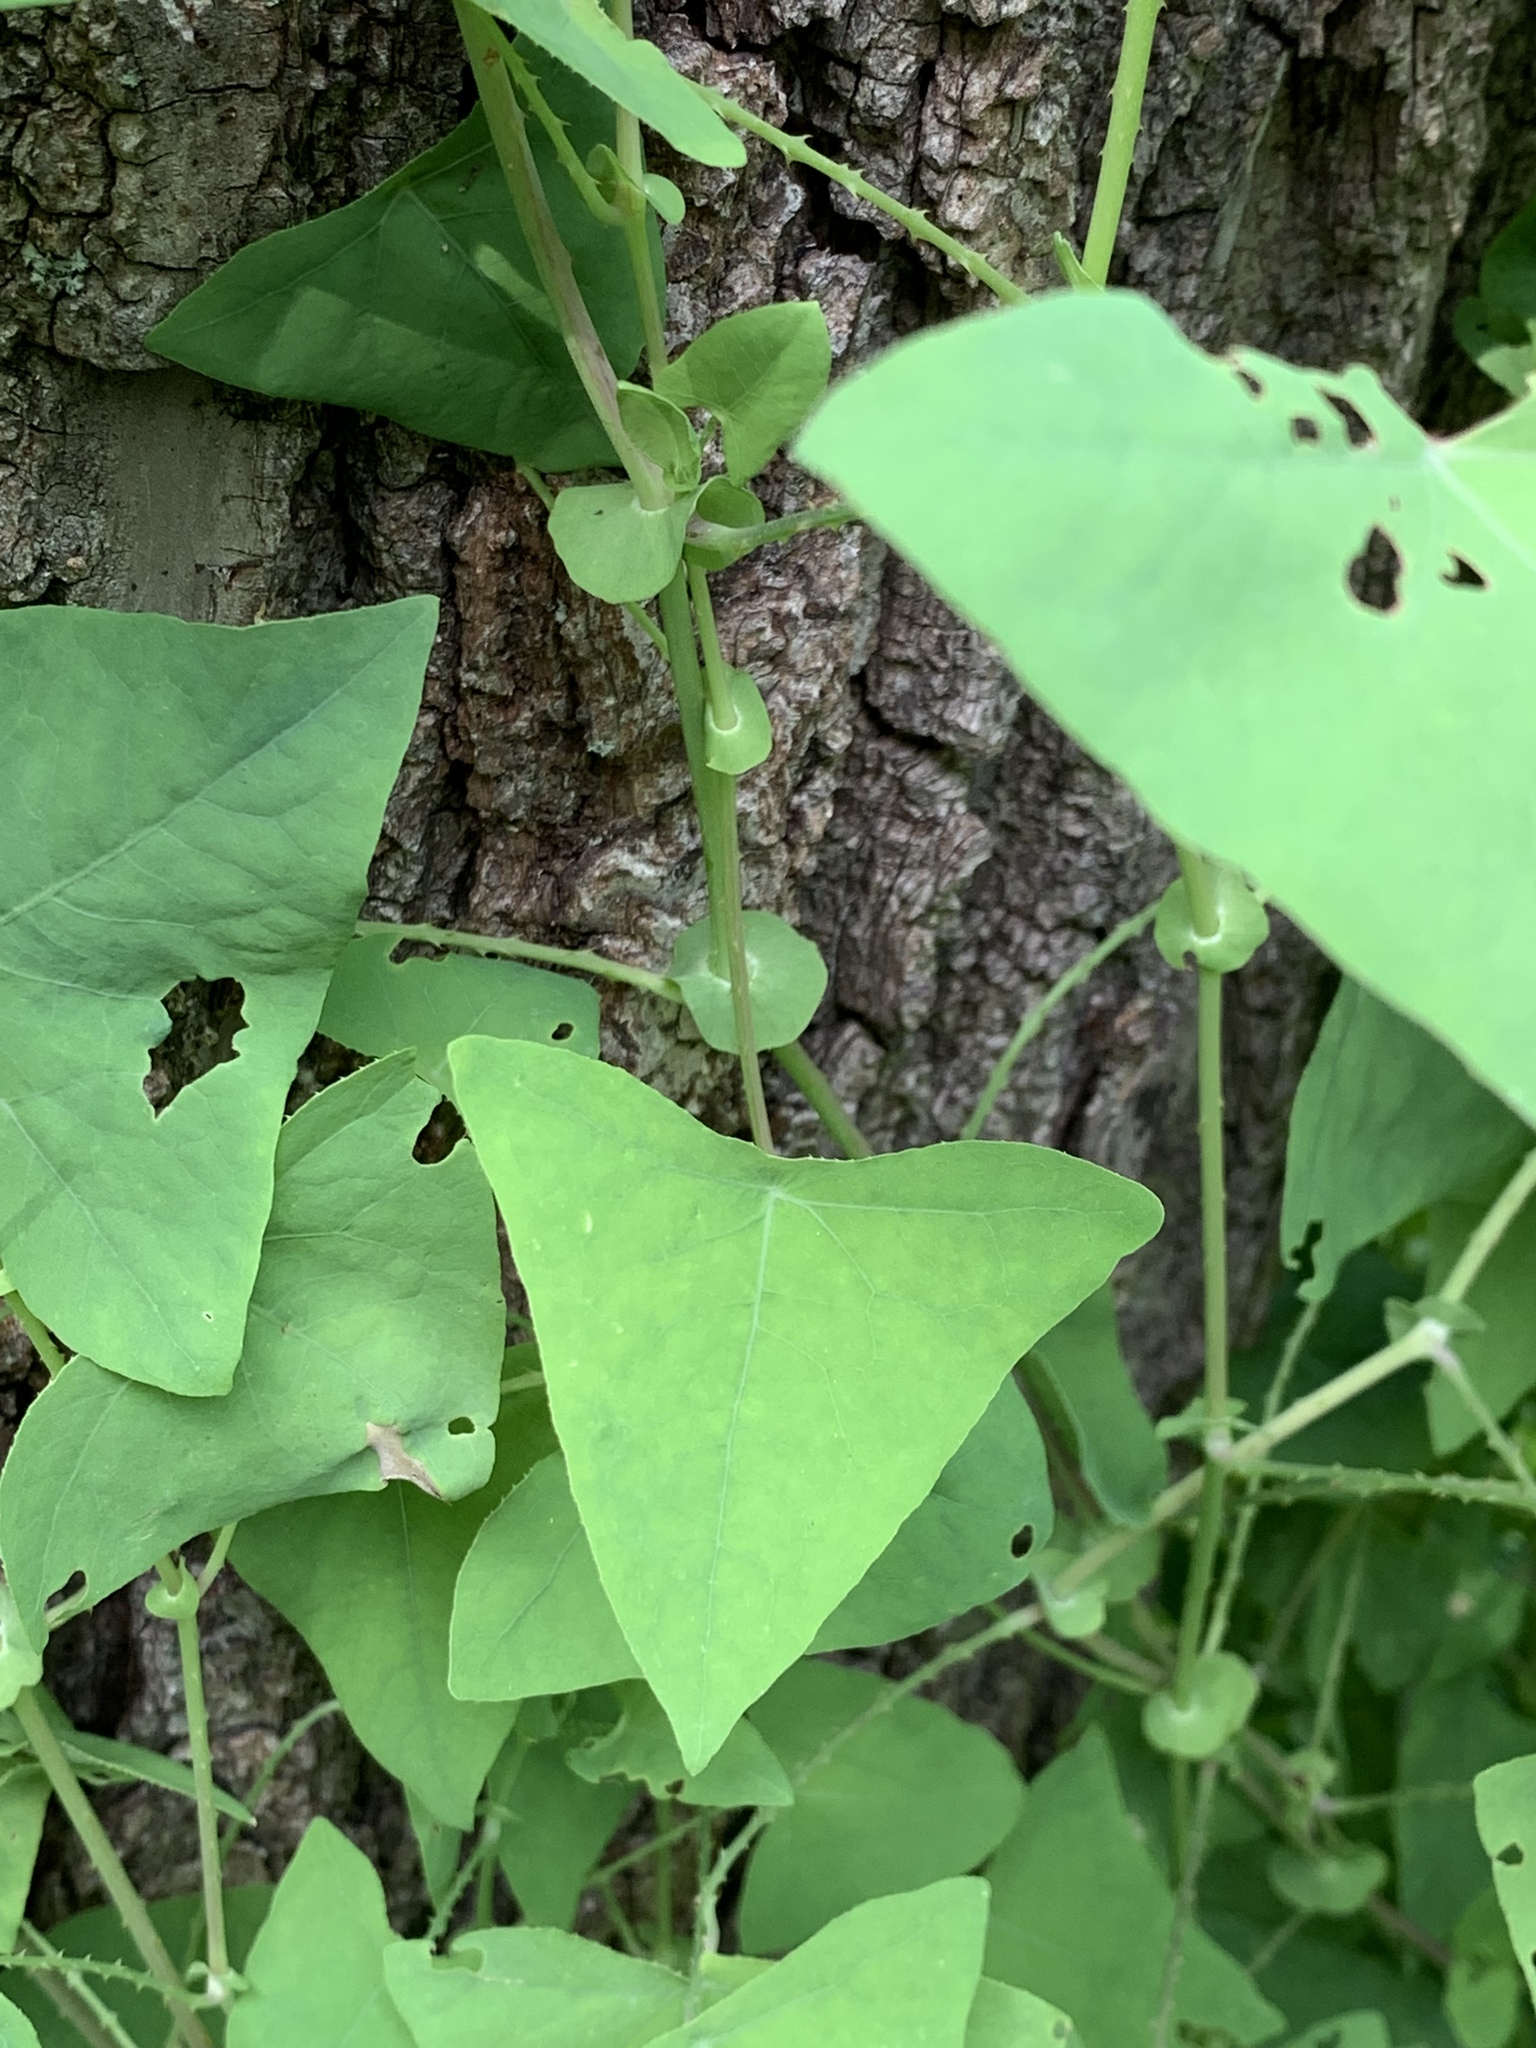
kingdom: Plantae
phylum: Tracheophyta
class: Magnoliopsida
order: Caryophyllales
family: Polygonaceae
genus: Persicaria
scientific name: Persicaria perfoliata
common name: Asiatic tearthumb
